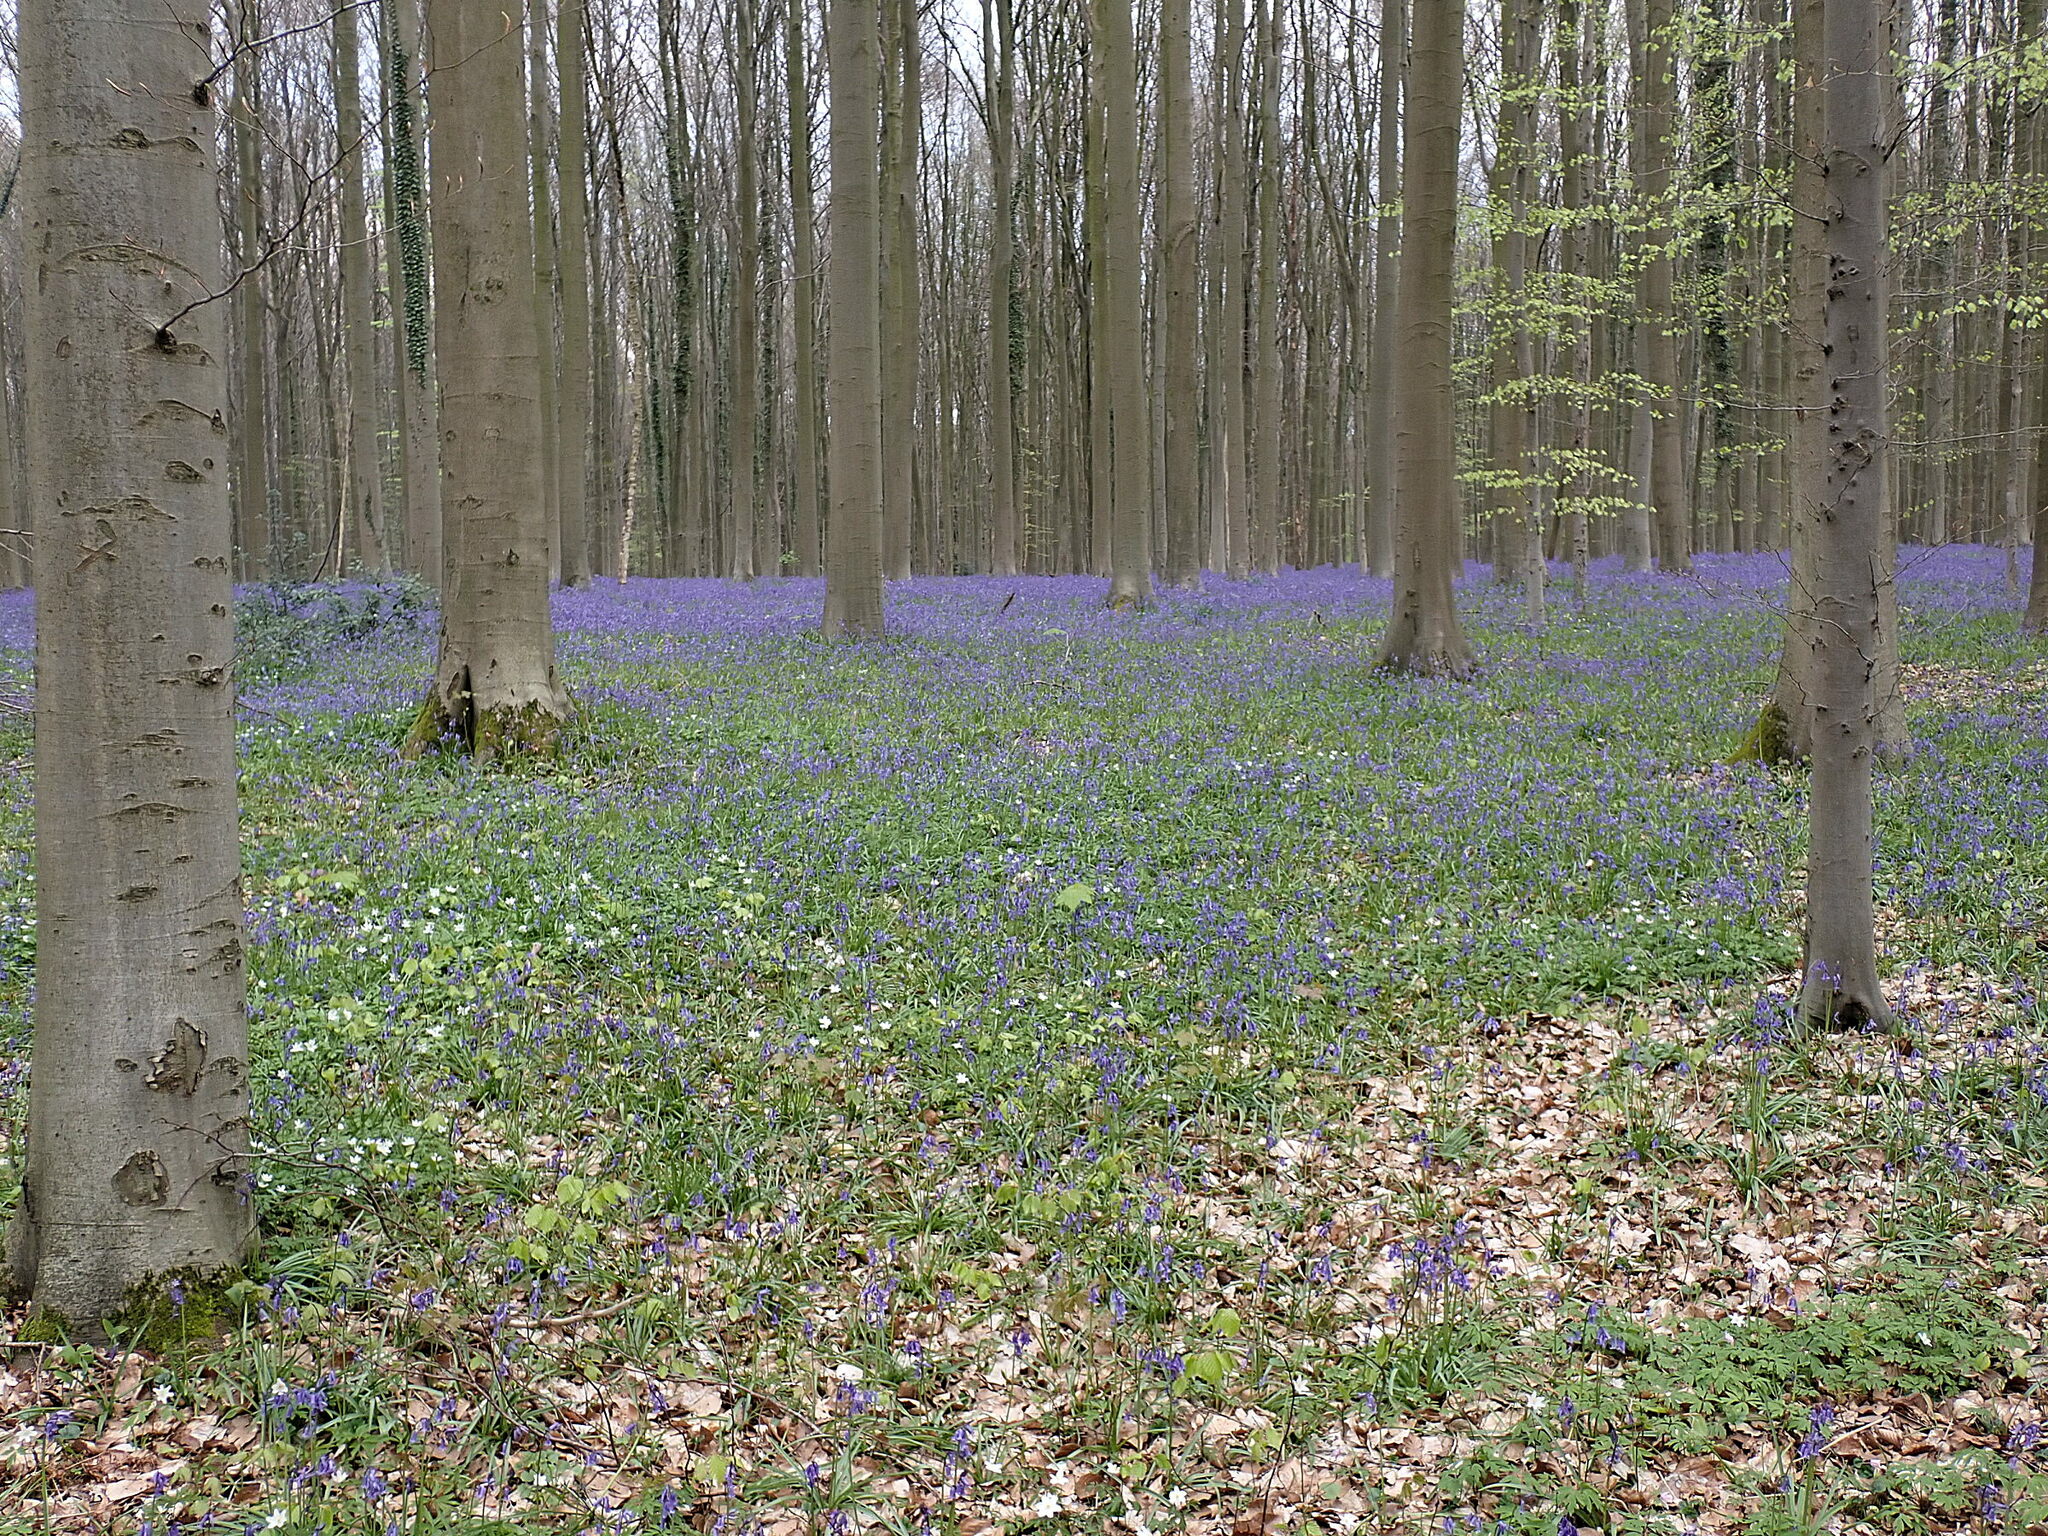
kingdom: Plantae
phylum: Tracheophyta
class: Liliopsida
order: Asparagales
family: Asparagaceae
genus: Hyacinthoides
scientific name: Hyacinthoides non-scripta
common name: Bluebell
